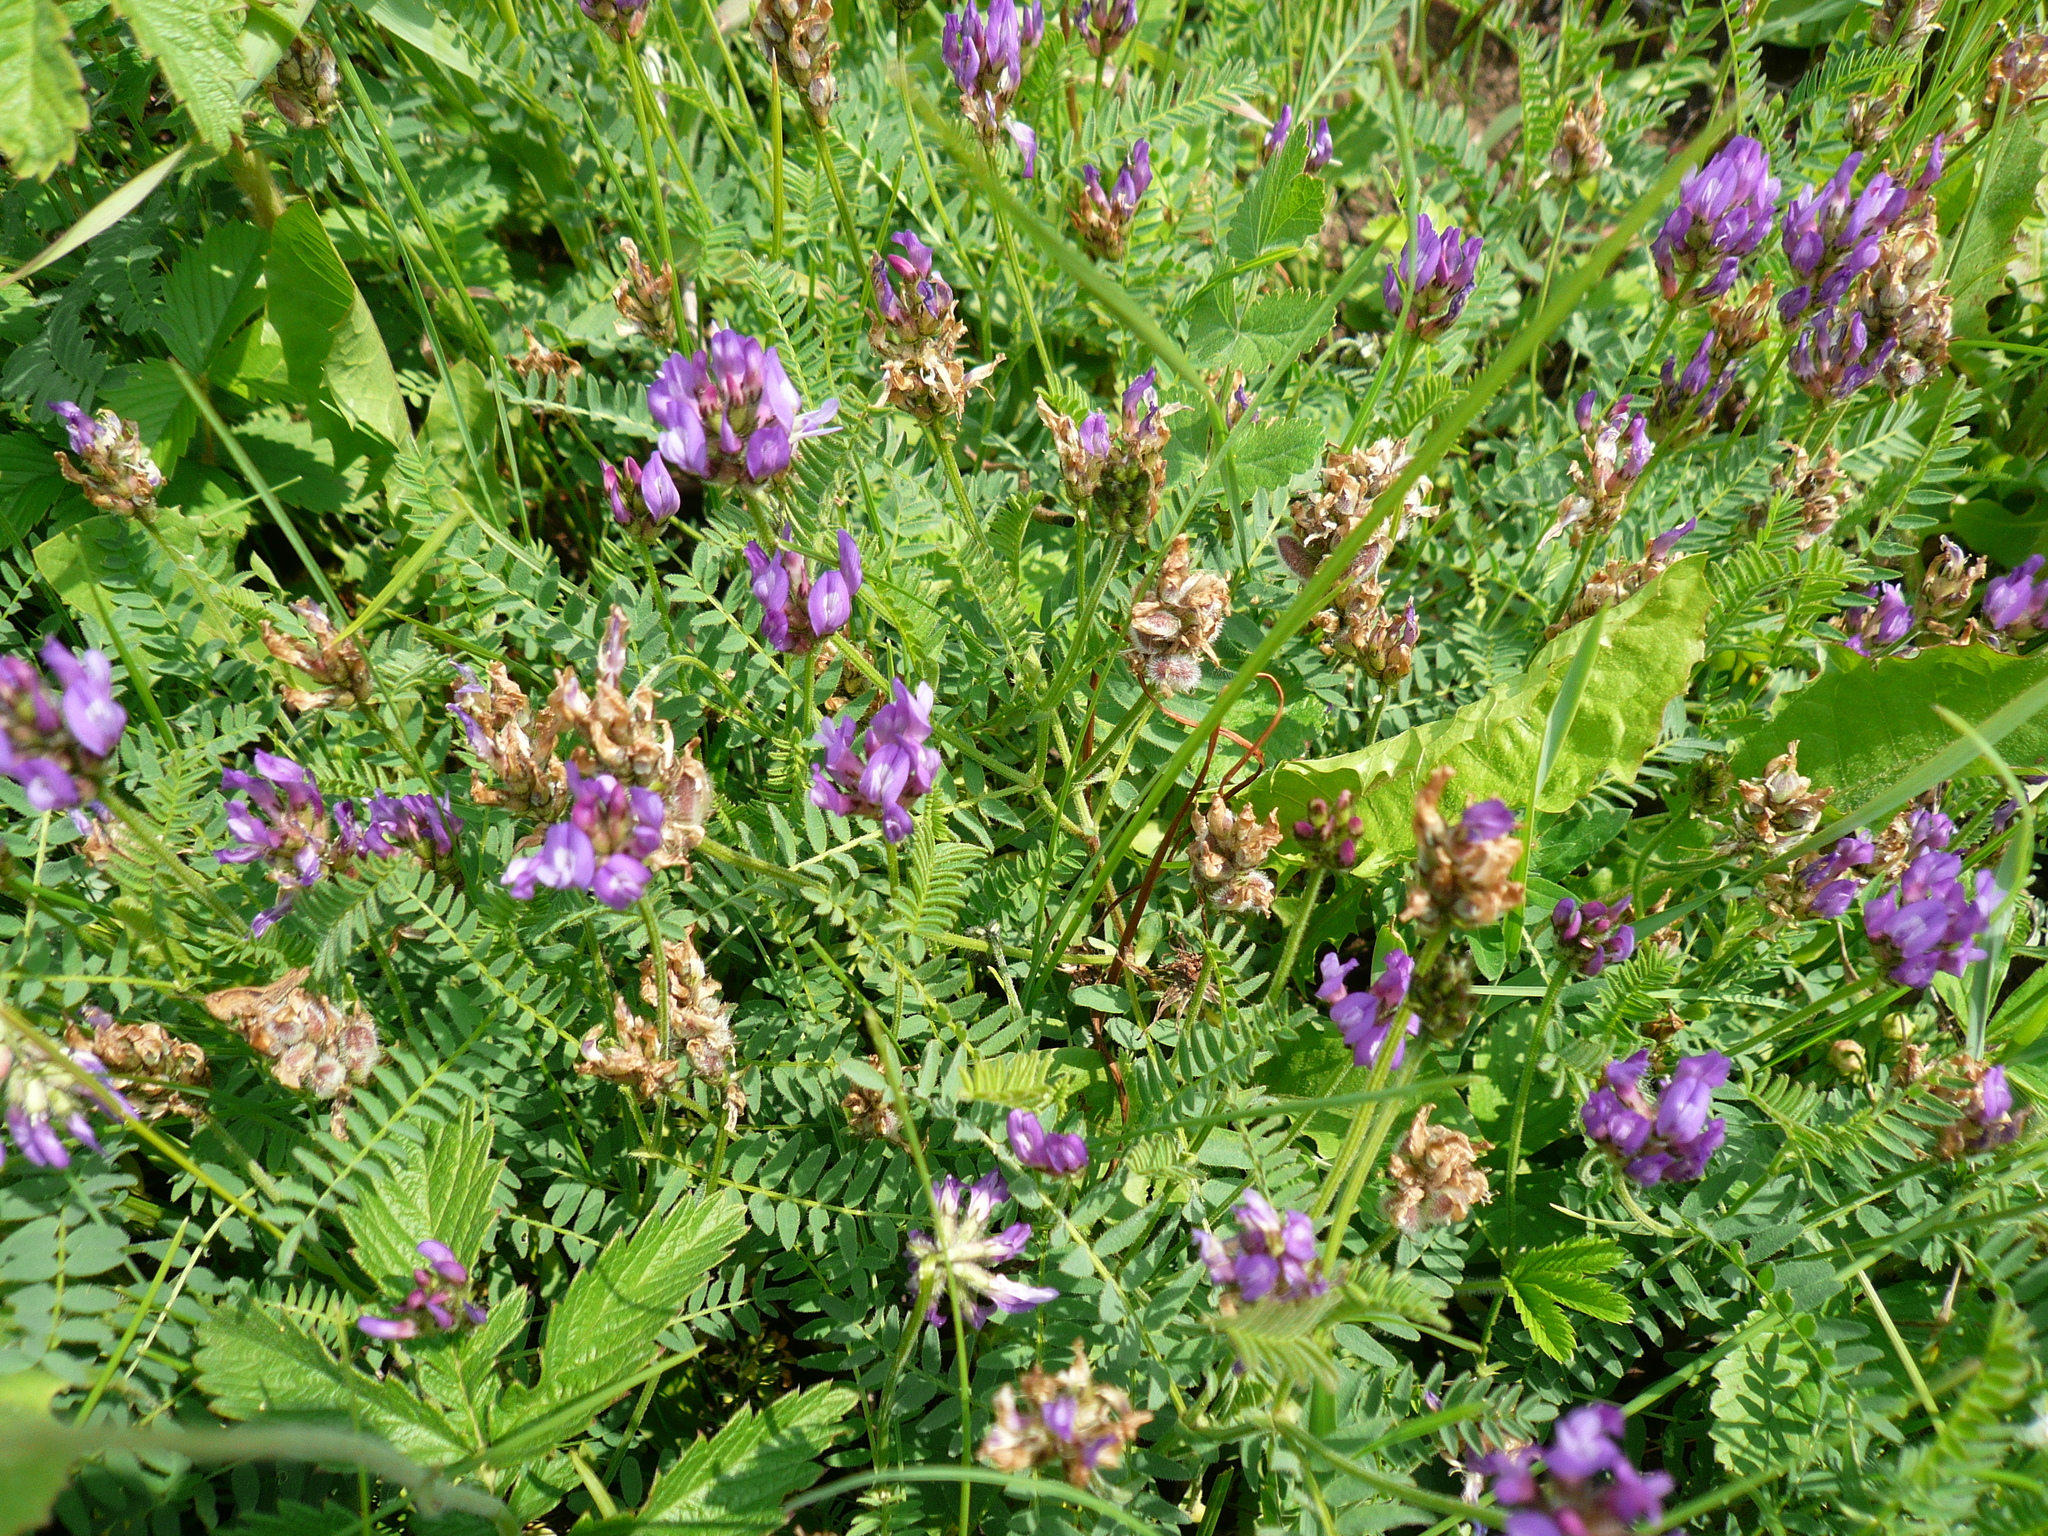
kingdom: Plantae
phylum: Tracheophyta
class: Magnoliopsida
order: Fabales
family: Fabaceae
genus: Astragalus
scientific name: Astragalus danicus
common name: Purple milk-vetch
